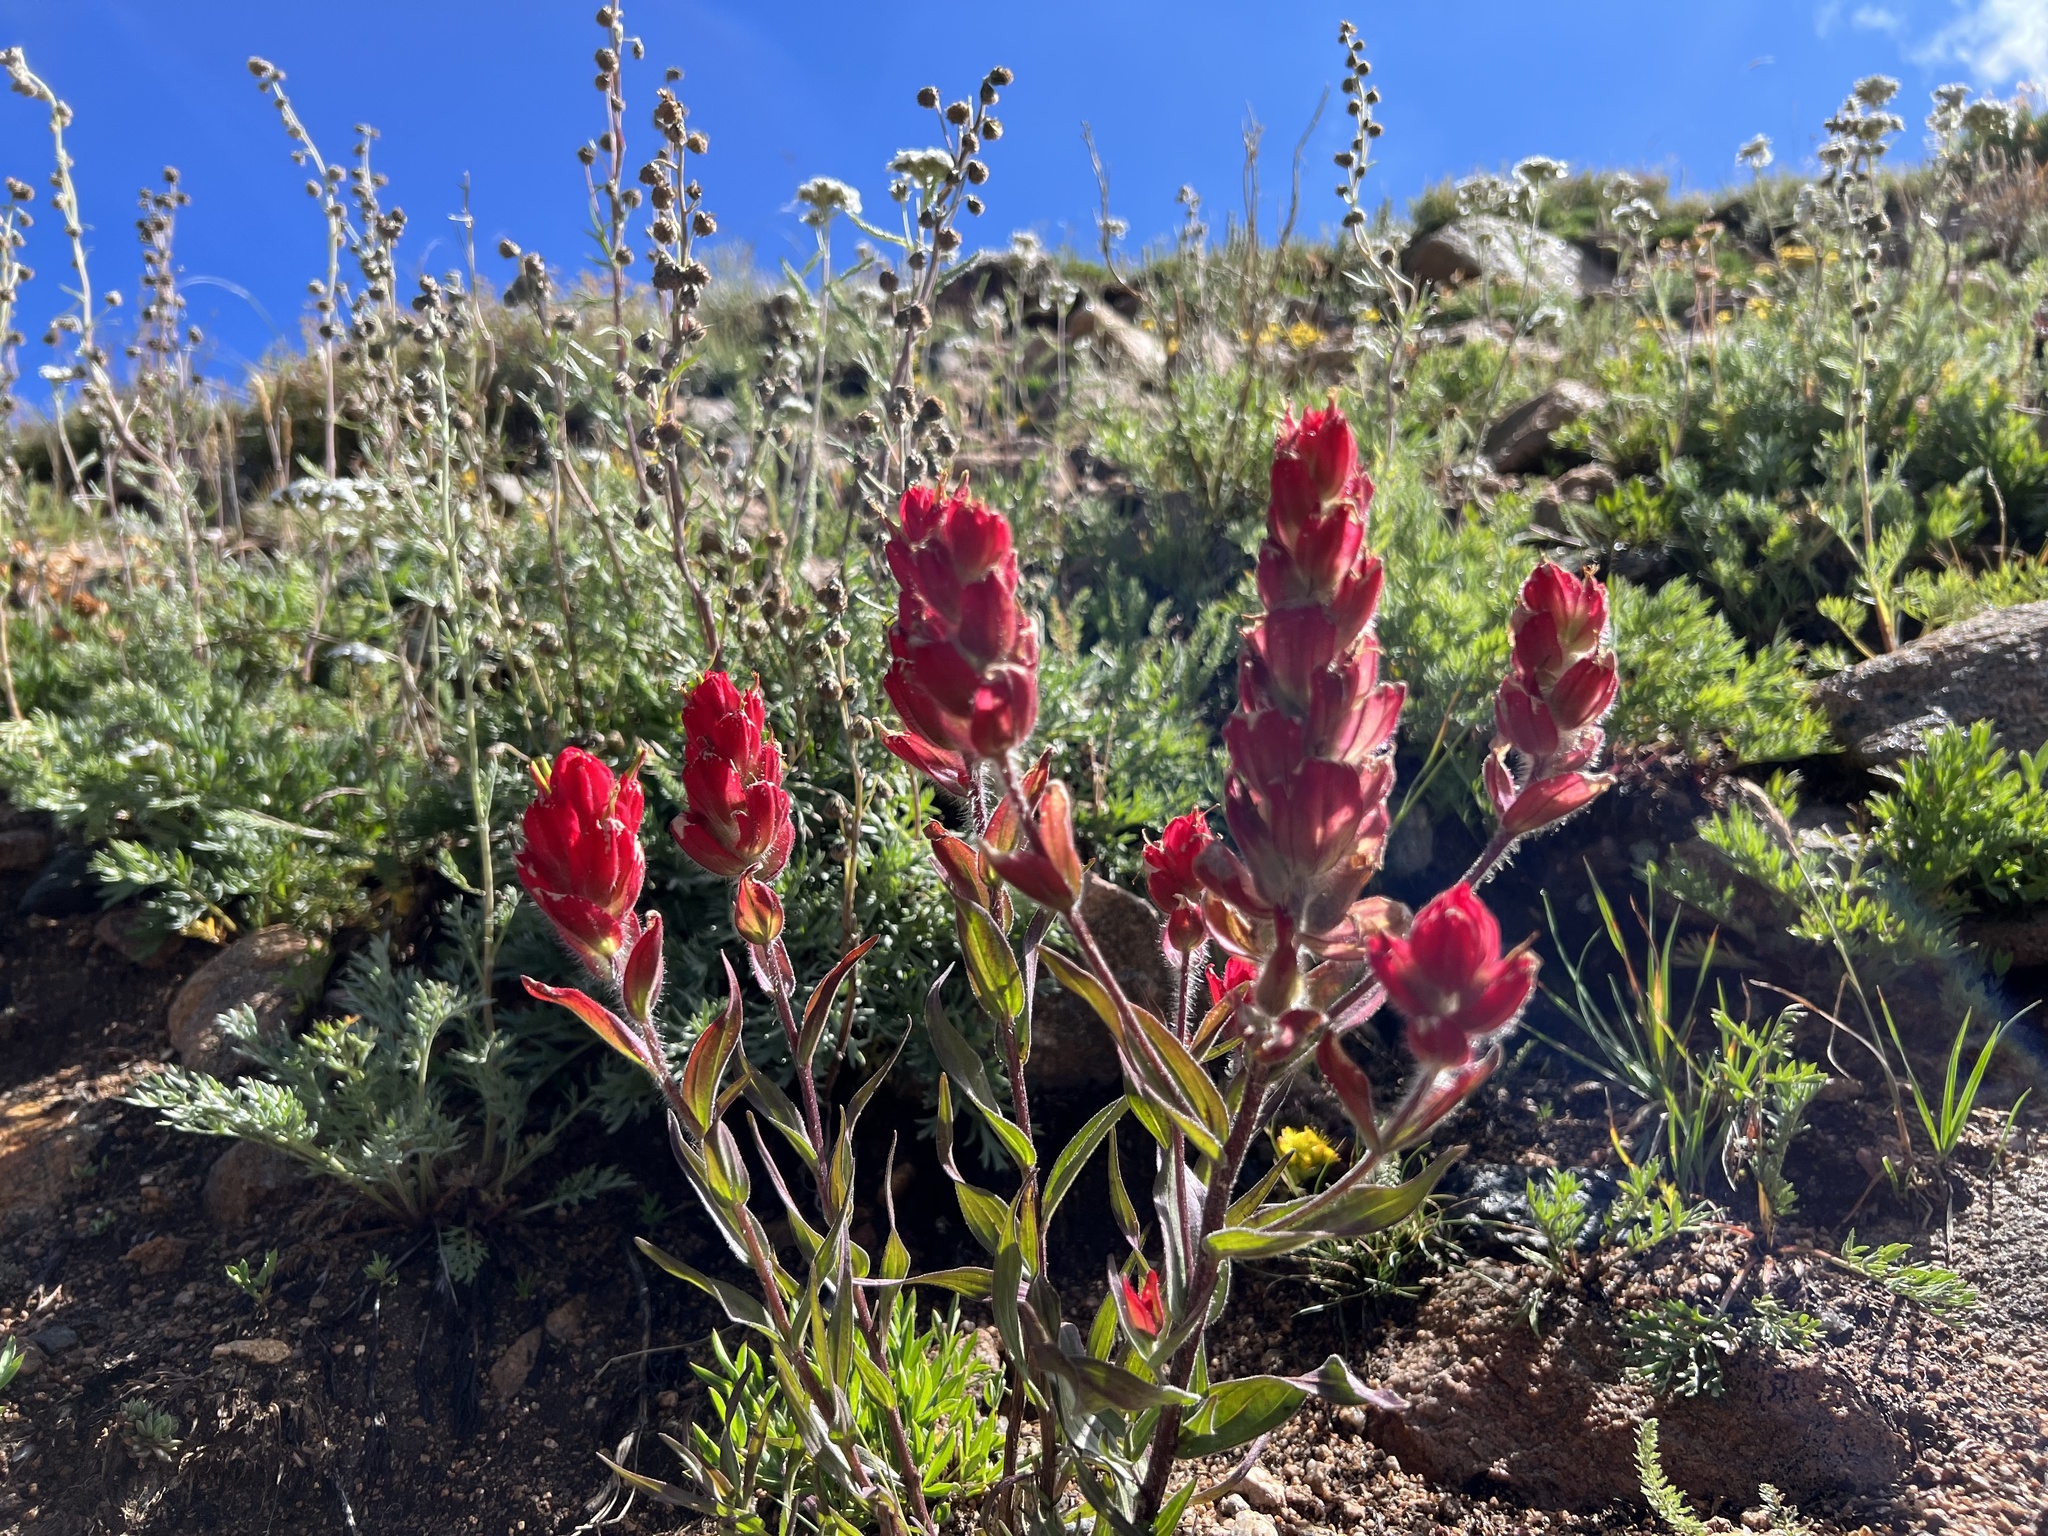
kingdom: Plantae
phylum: Tracheophyta
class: Magnoliopsida
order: Lamiales
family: Orobanchaceae
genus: Castilleja
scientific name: Castilleja rhexifolia
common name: Rocky mountain paintbrush
